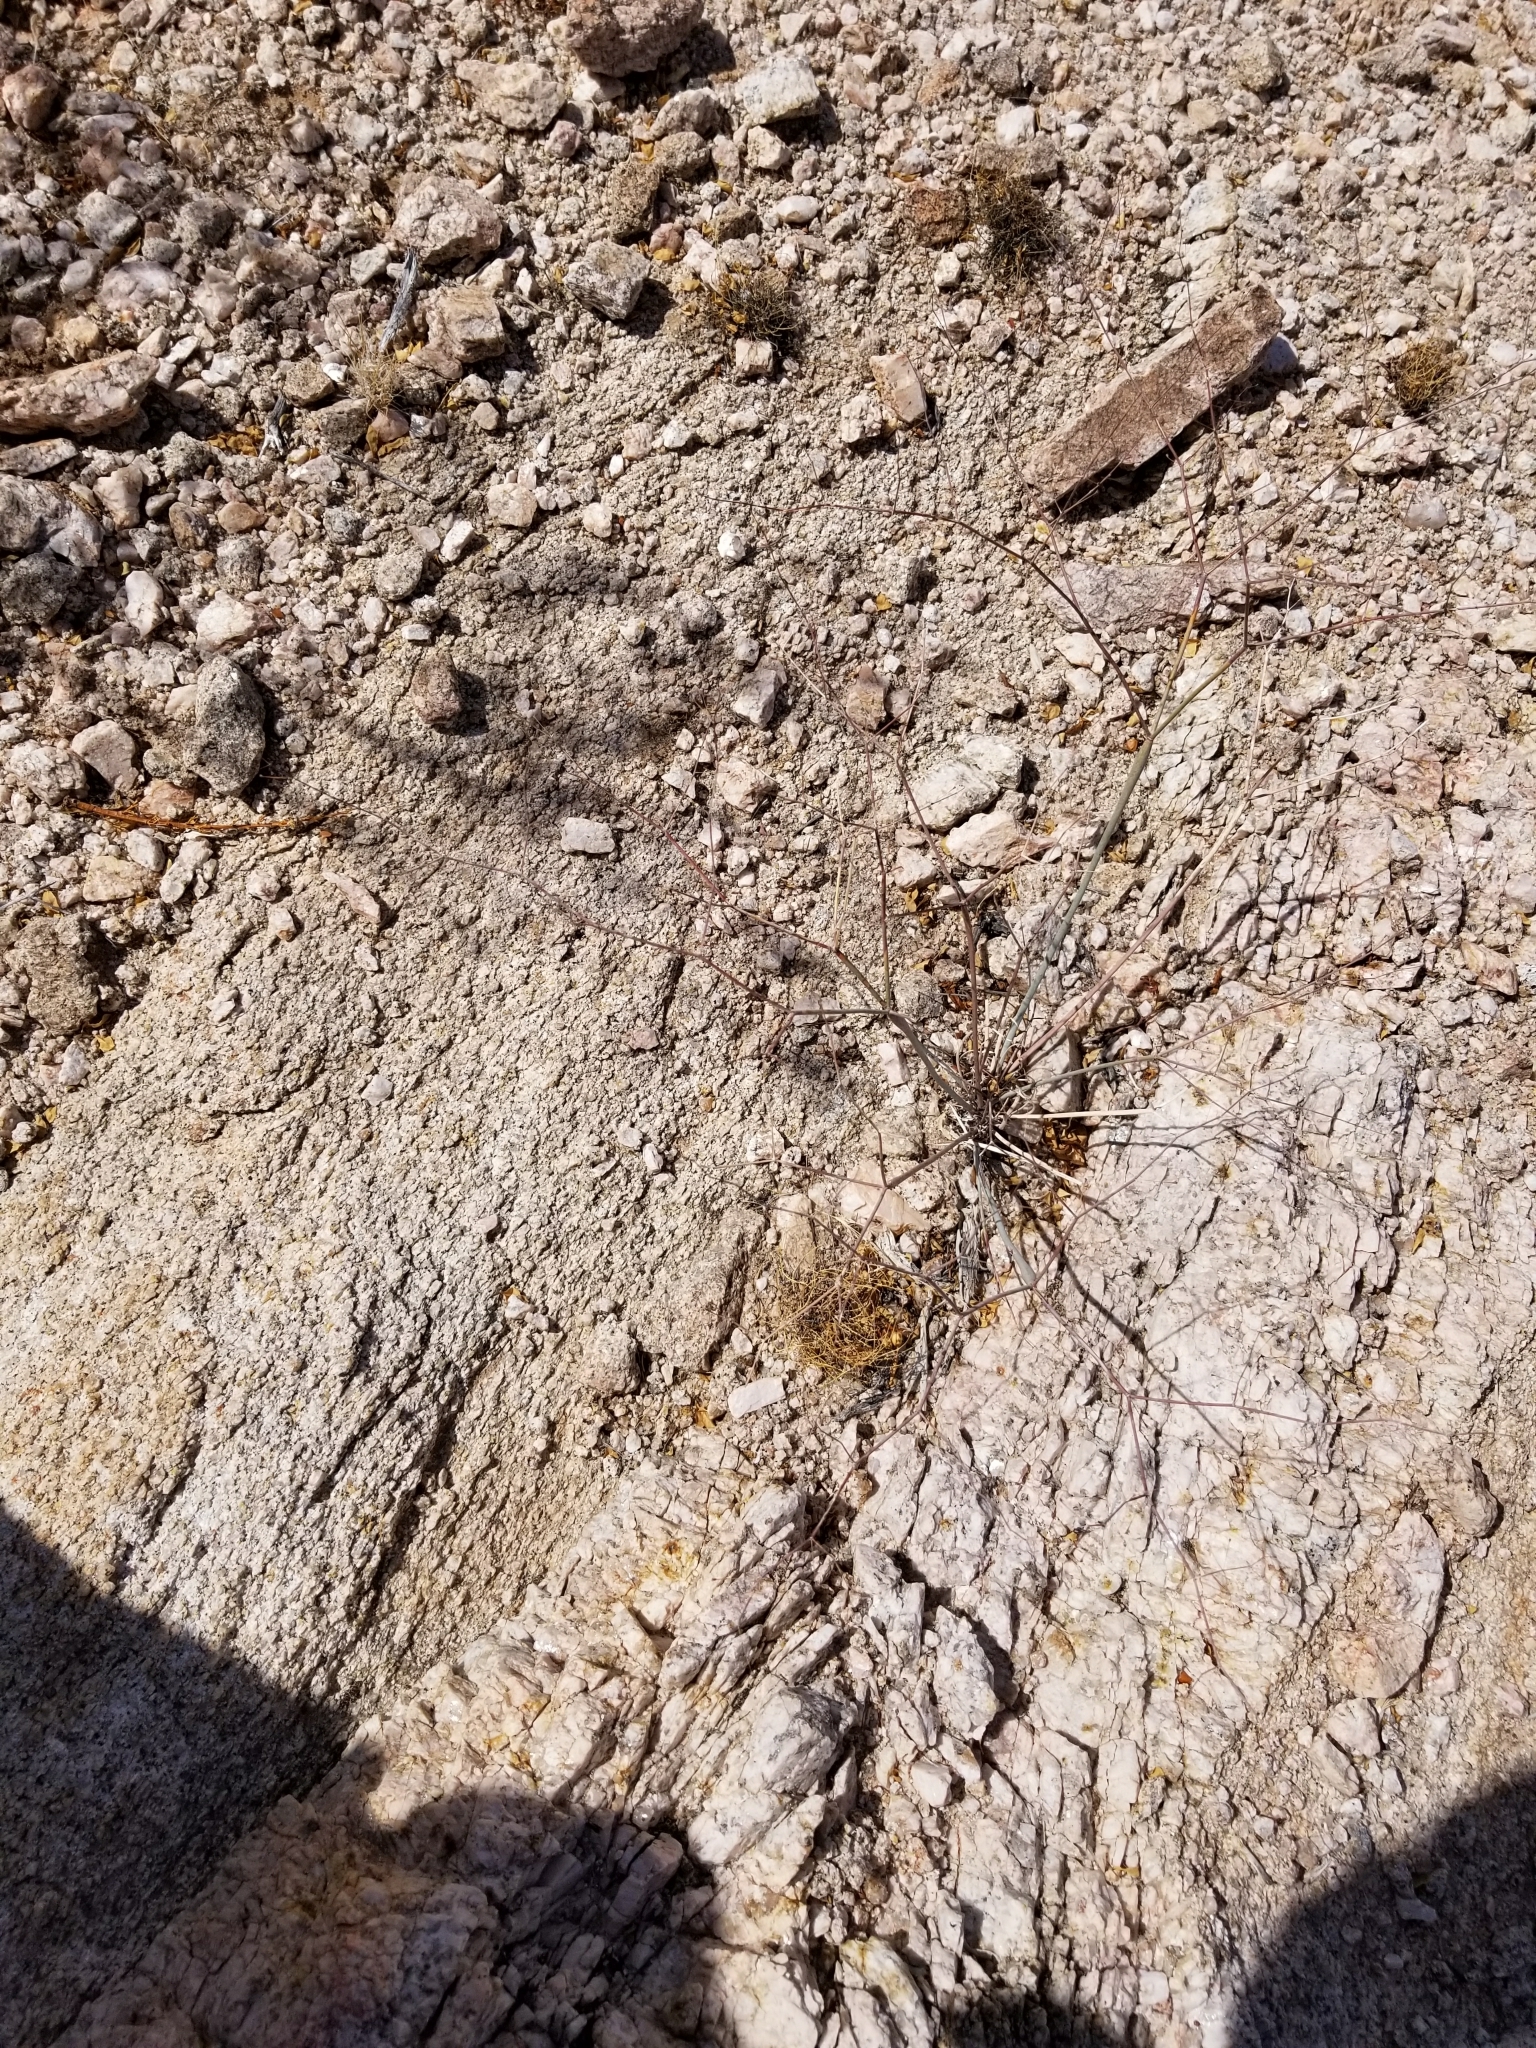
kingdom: Plantae
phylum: Tracheophyta
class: Magnoliopsida
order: Caryophyllales
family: Polygonaceae
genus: Eriogonum
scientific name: Eriogonum inflatum
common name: Desert trumpet
